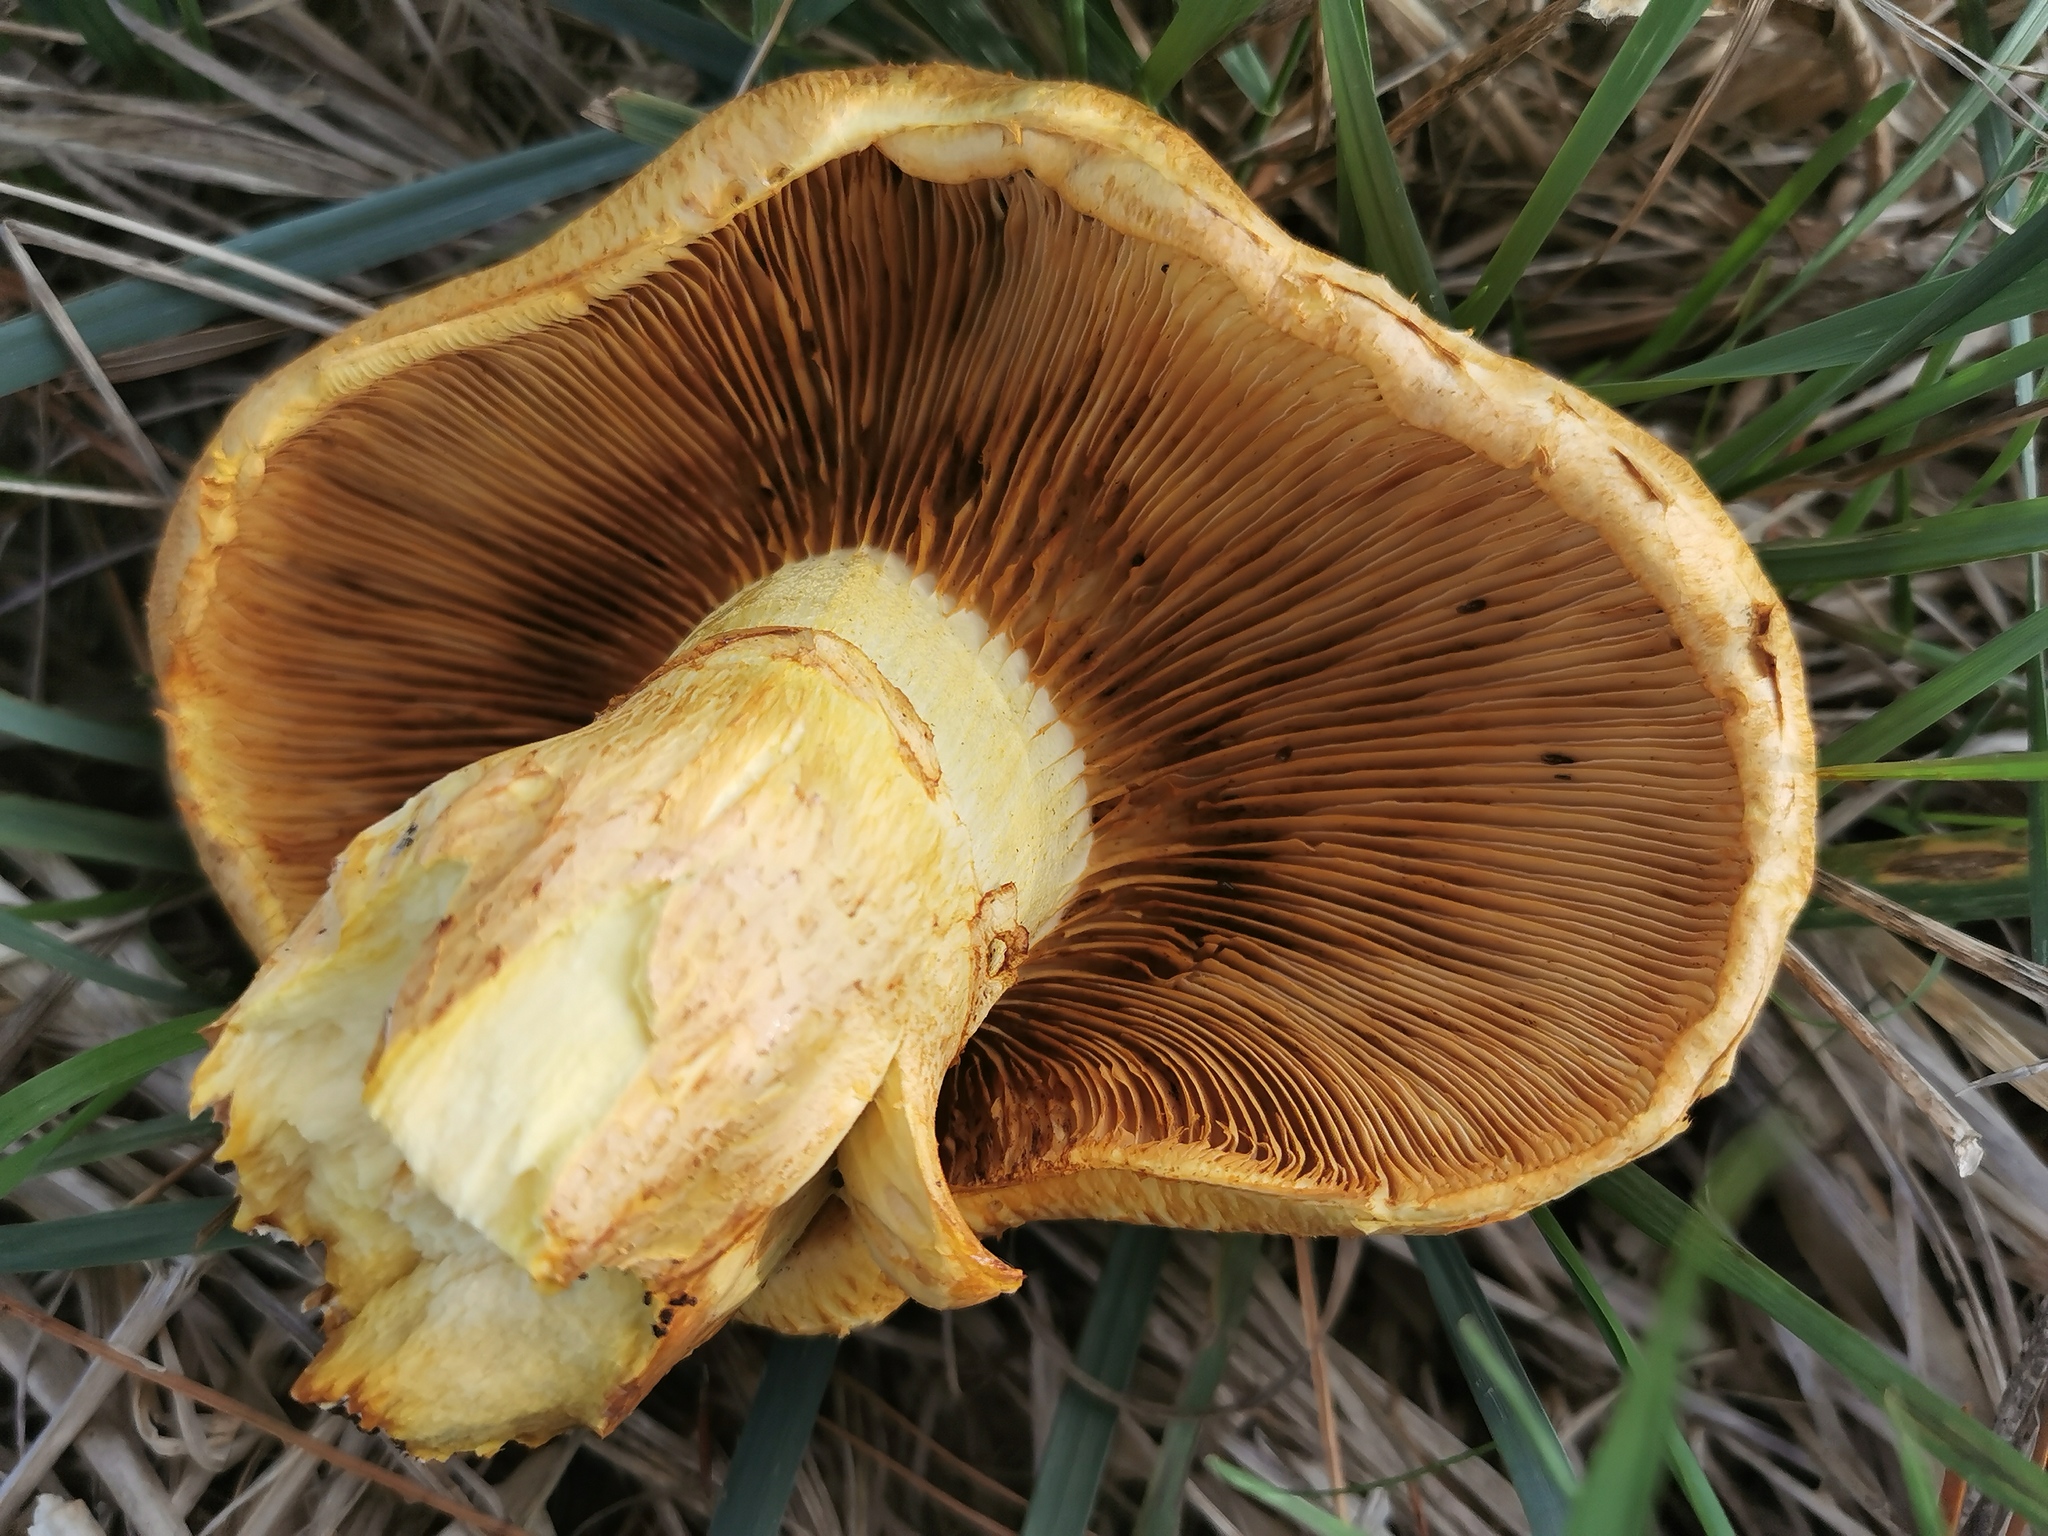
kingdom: Fungi
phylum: Basidiomycota
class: Agaricomycetes
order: Agaricales
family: Hymenogastraceae
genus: Gymnopilus
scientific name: Gymnopilus junonius
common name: Spectacular rustgill
